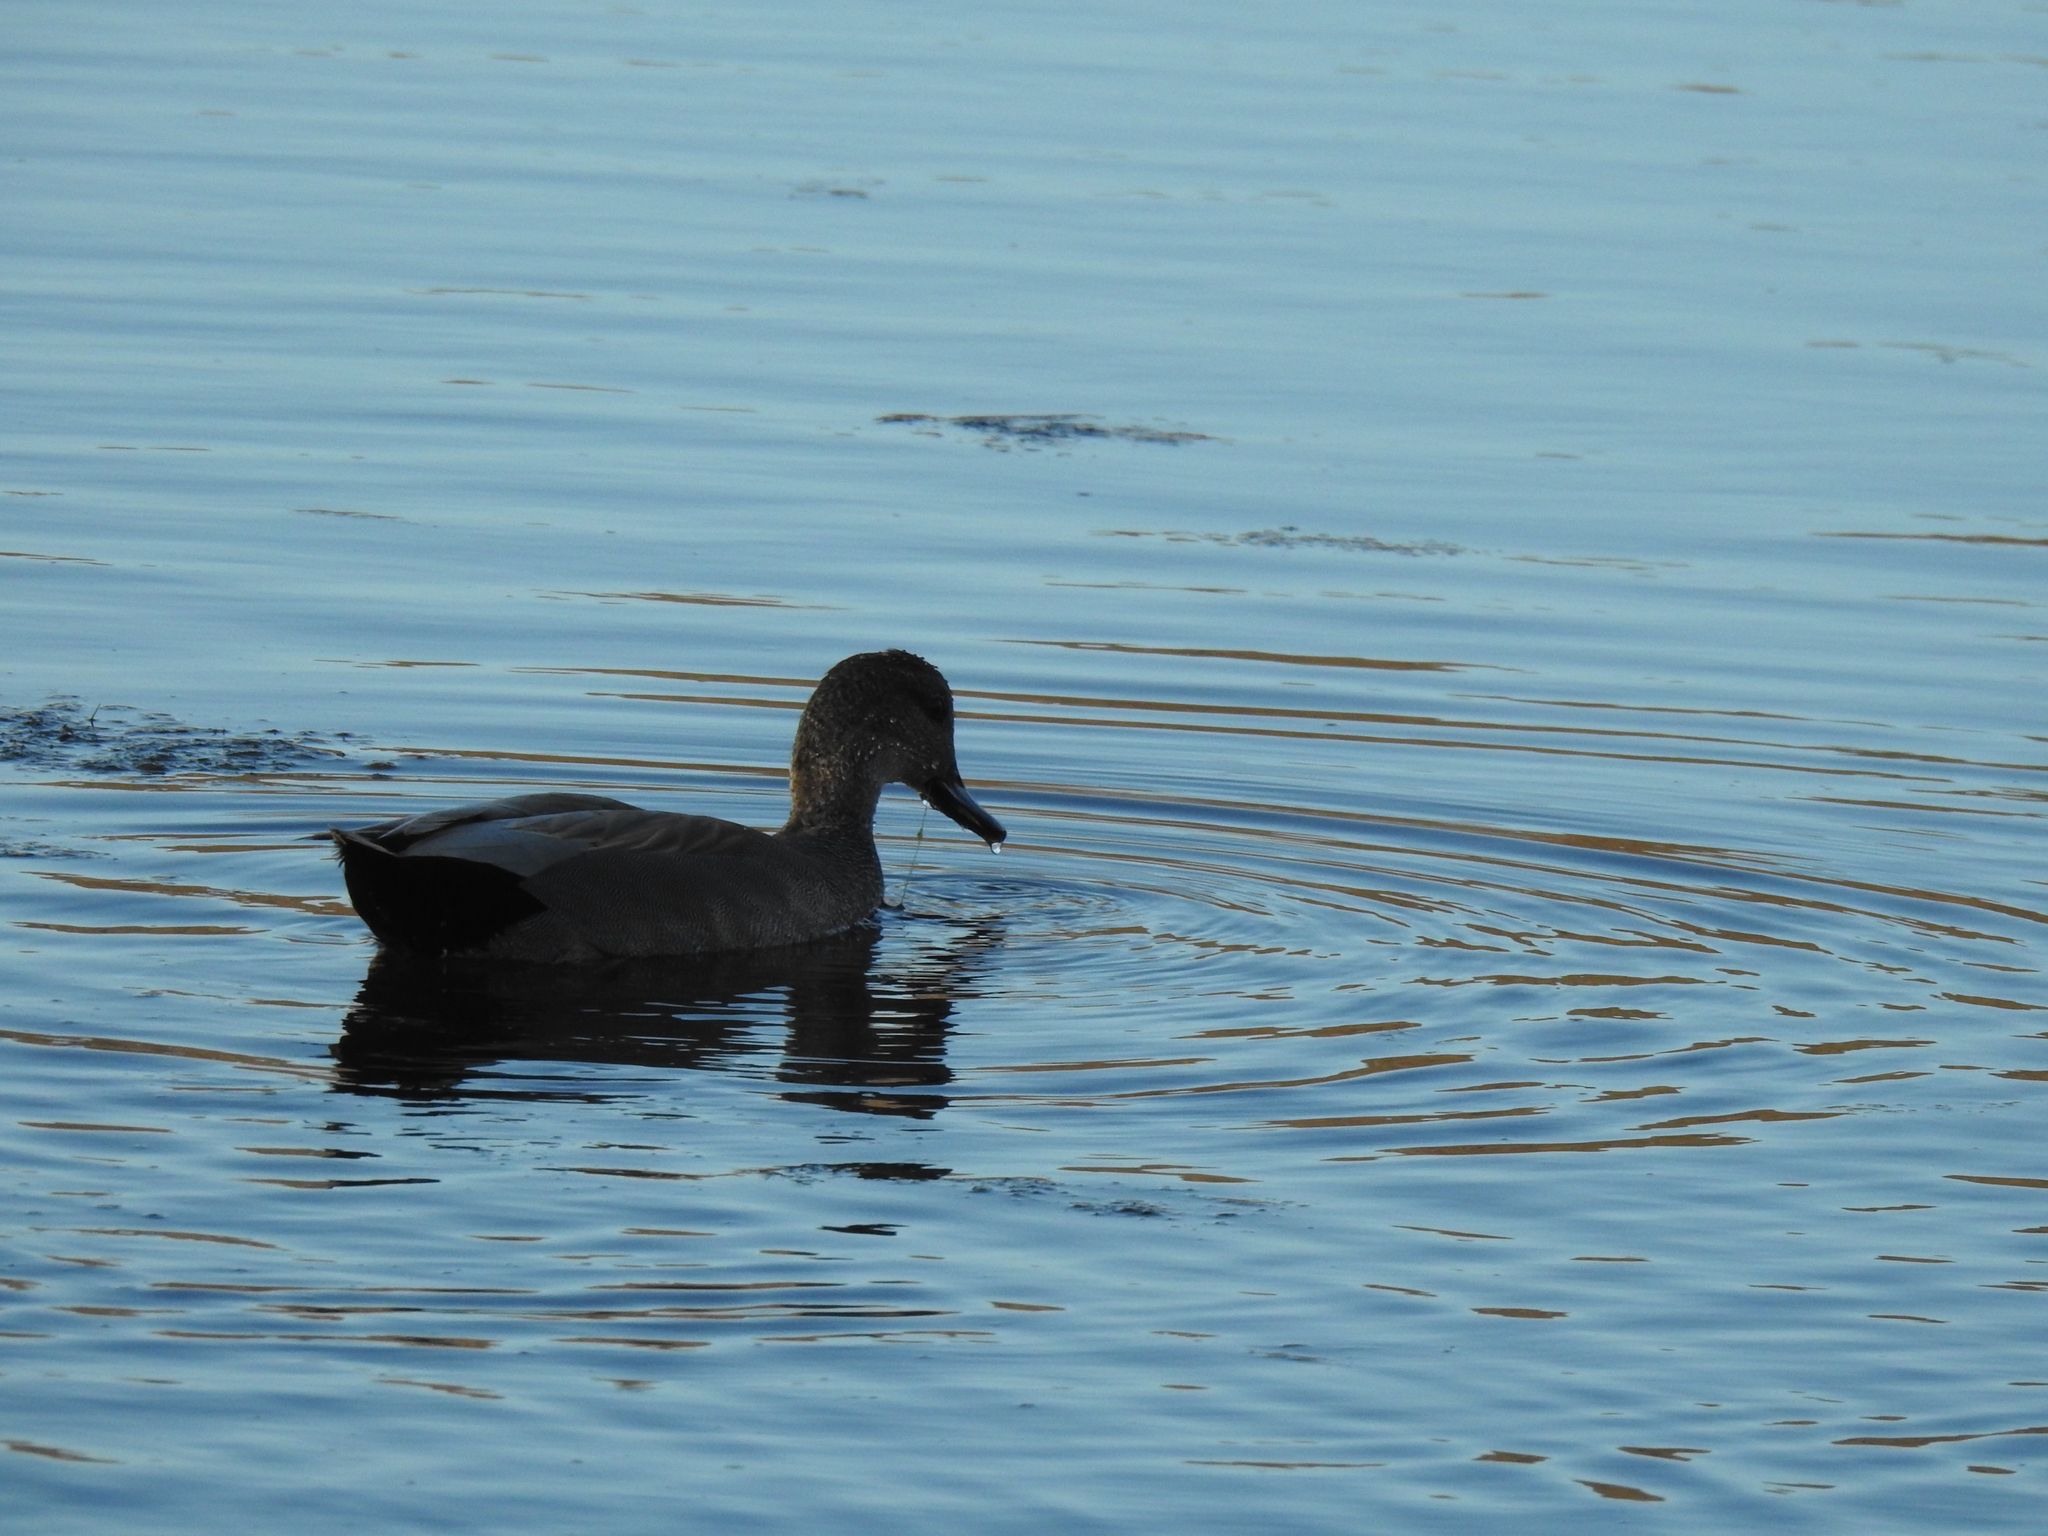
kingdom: Animalia
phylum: Chordata
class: Aves
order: Anseriformes
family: Anatidae
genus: Mareca
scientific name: Mareca strepera
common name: Gadwall
